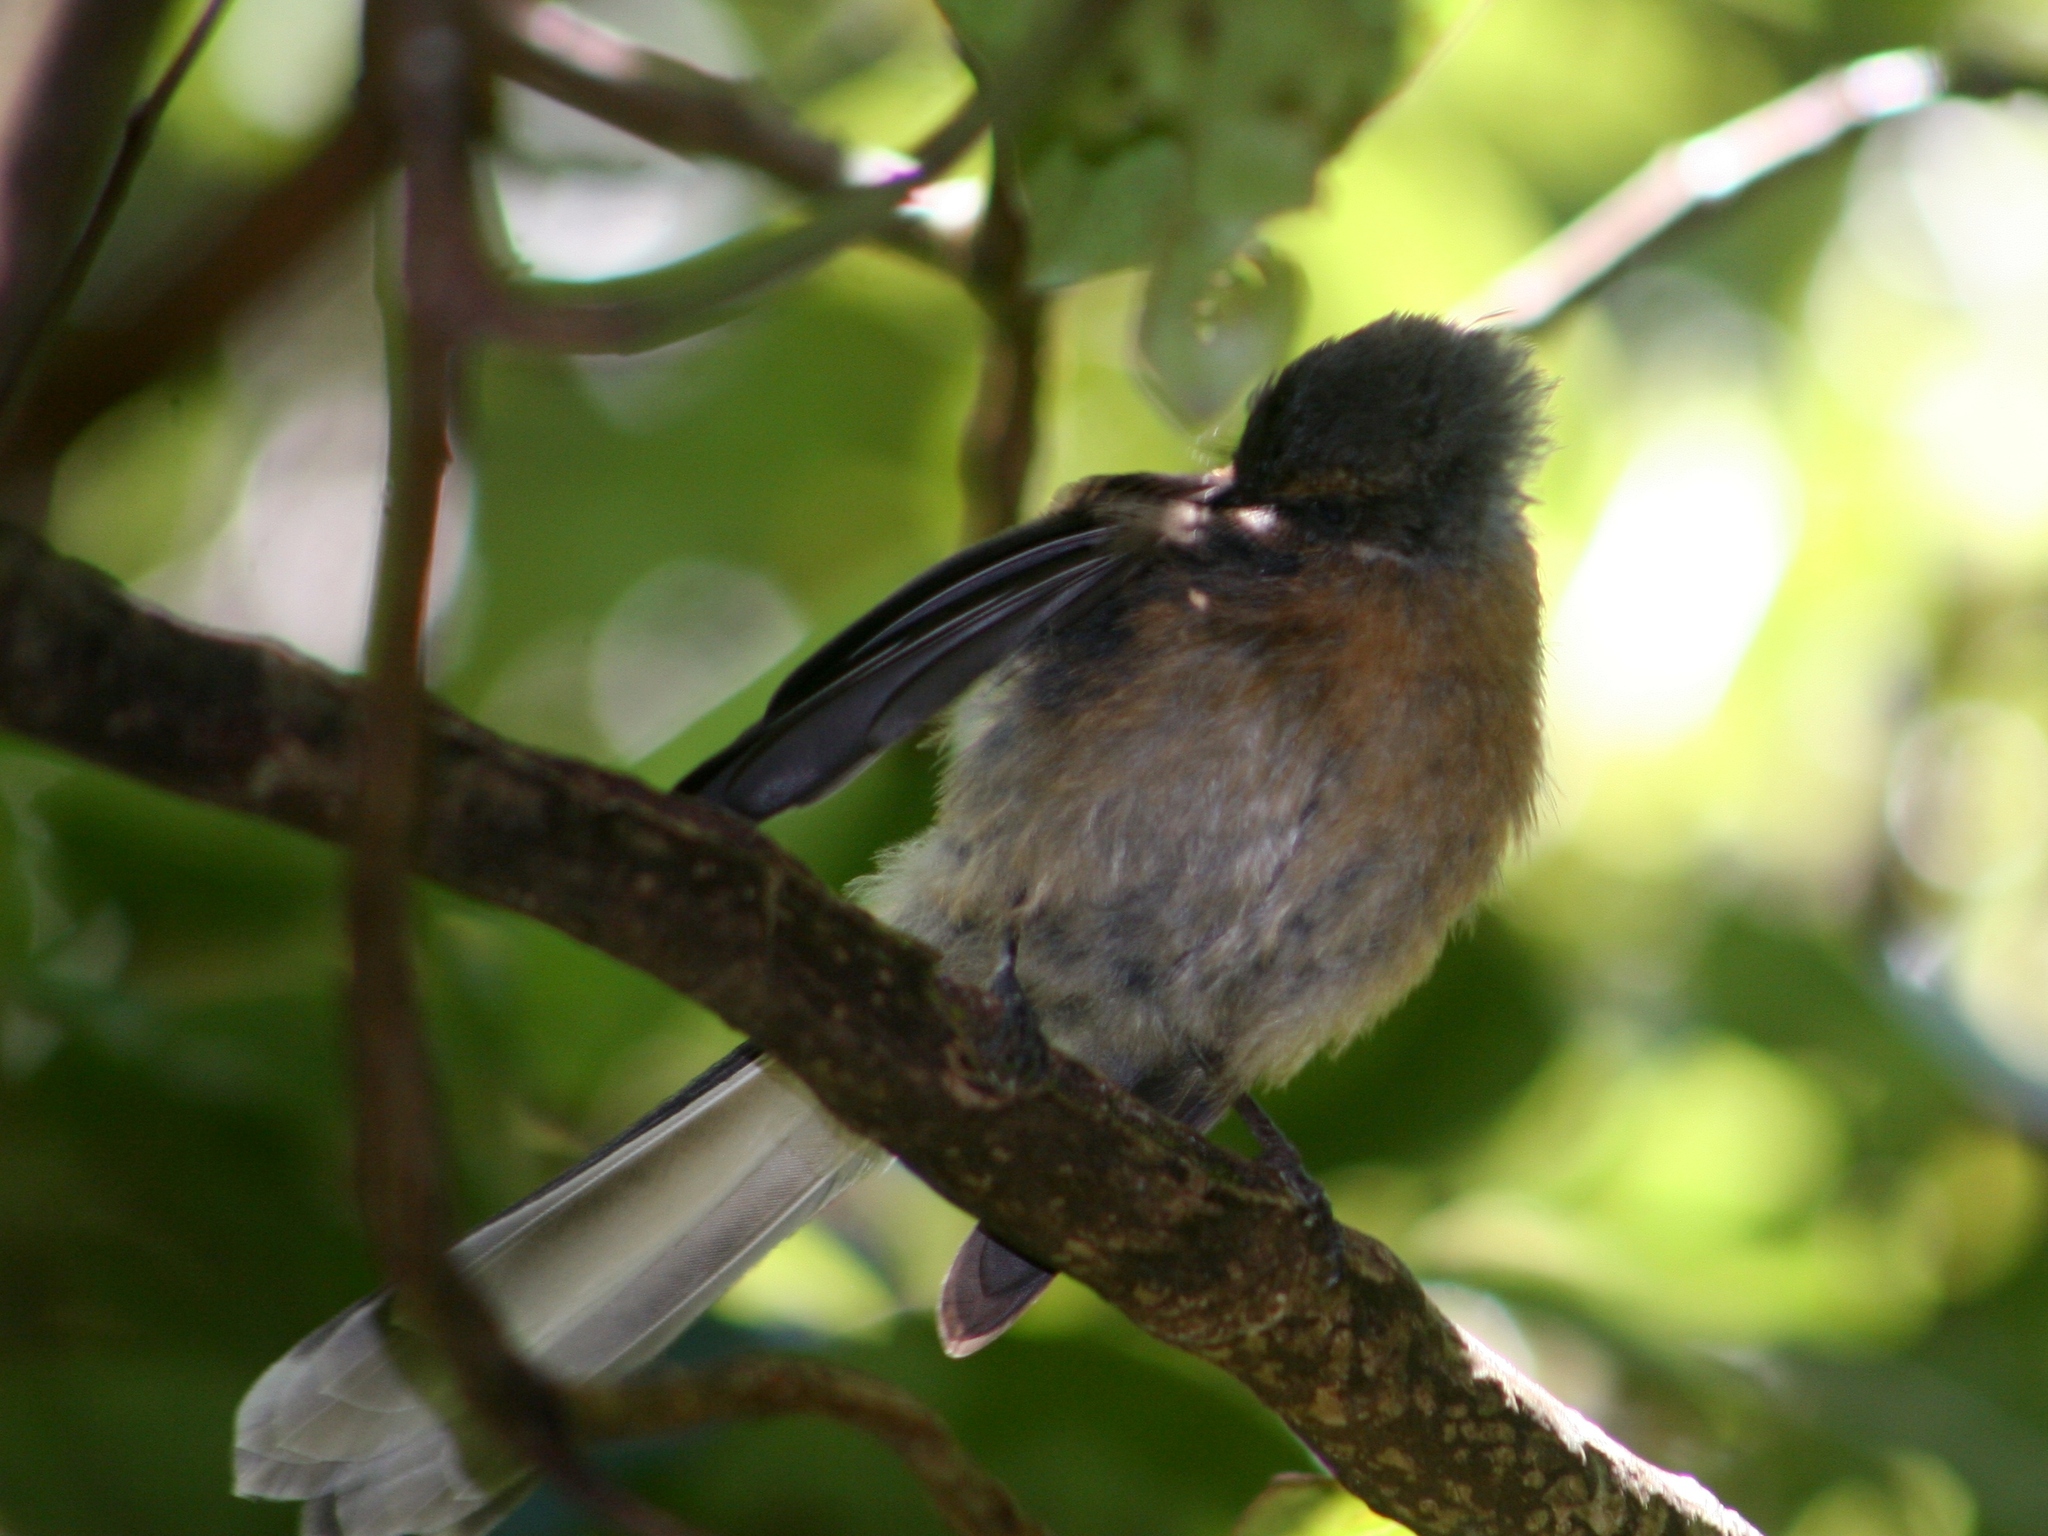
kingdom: Animalia
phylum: Chordata
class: Aves
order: Passeriformes
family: Rhipiduridae
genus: Rhipidura
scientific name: Rhipidura fuliginosa
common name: New zealand fantail
